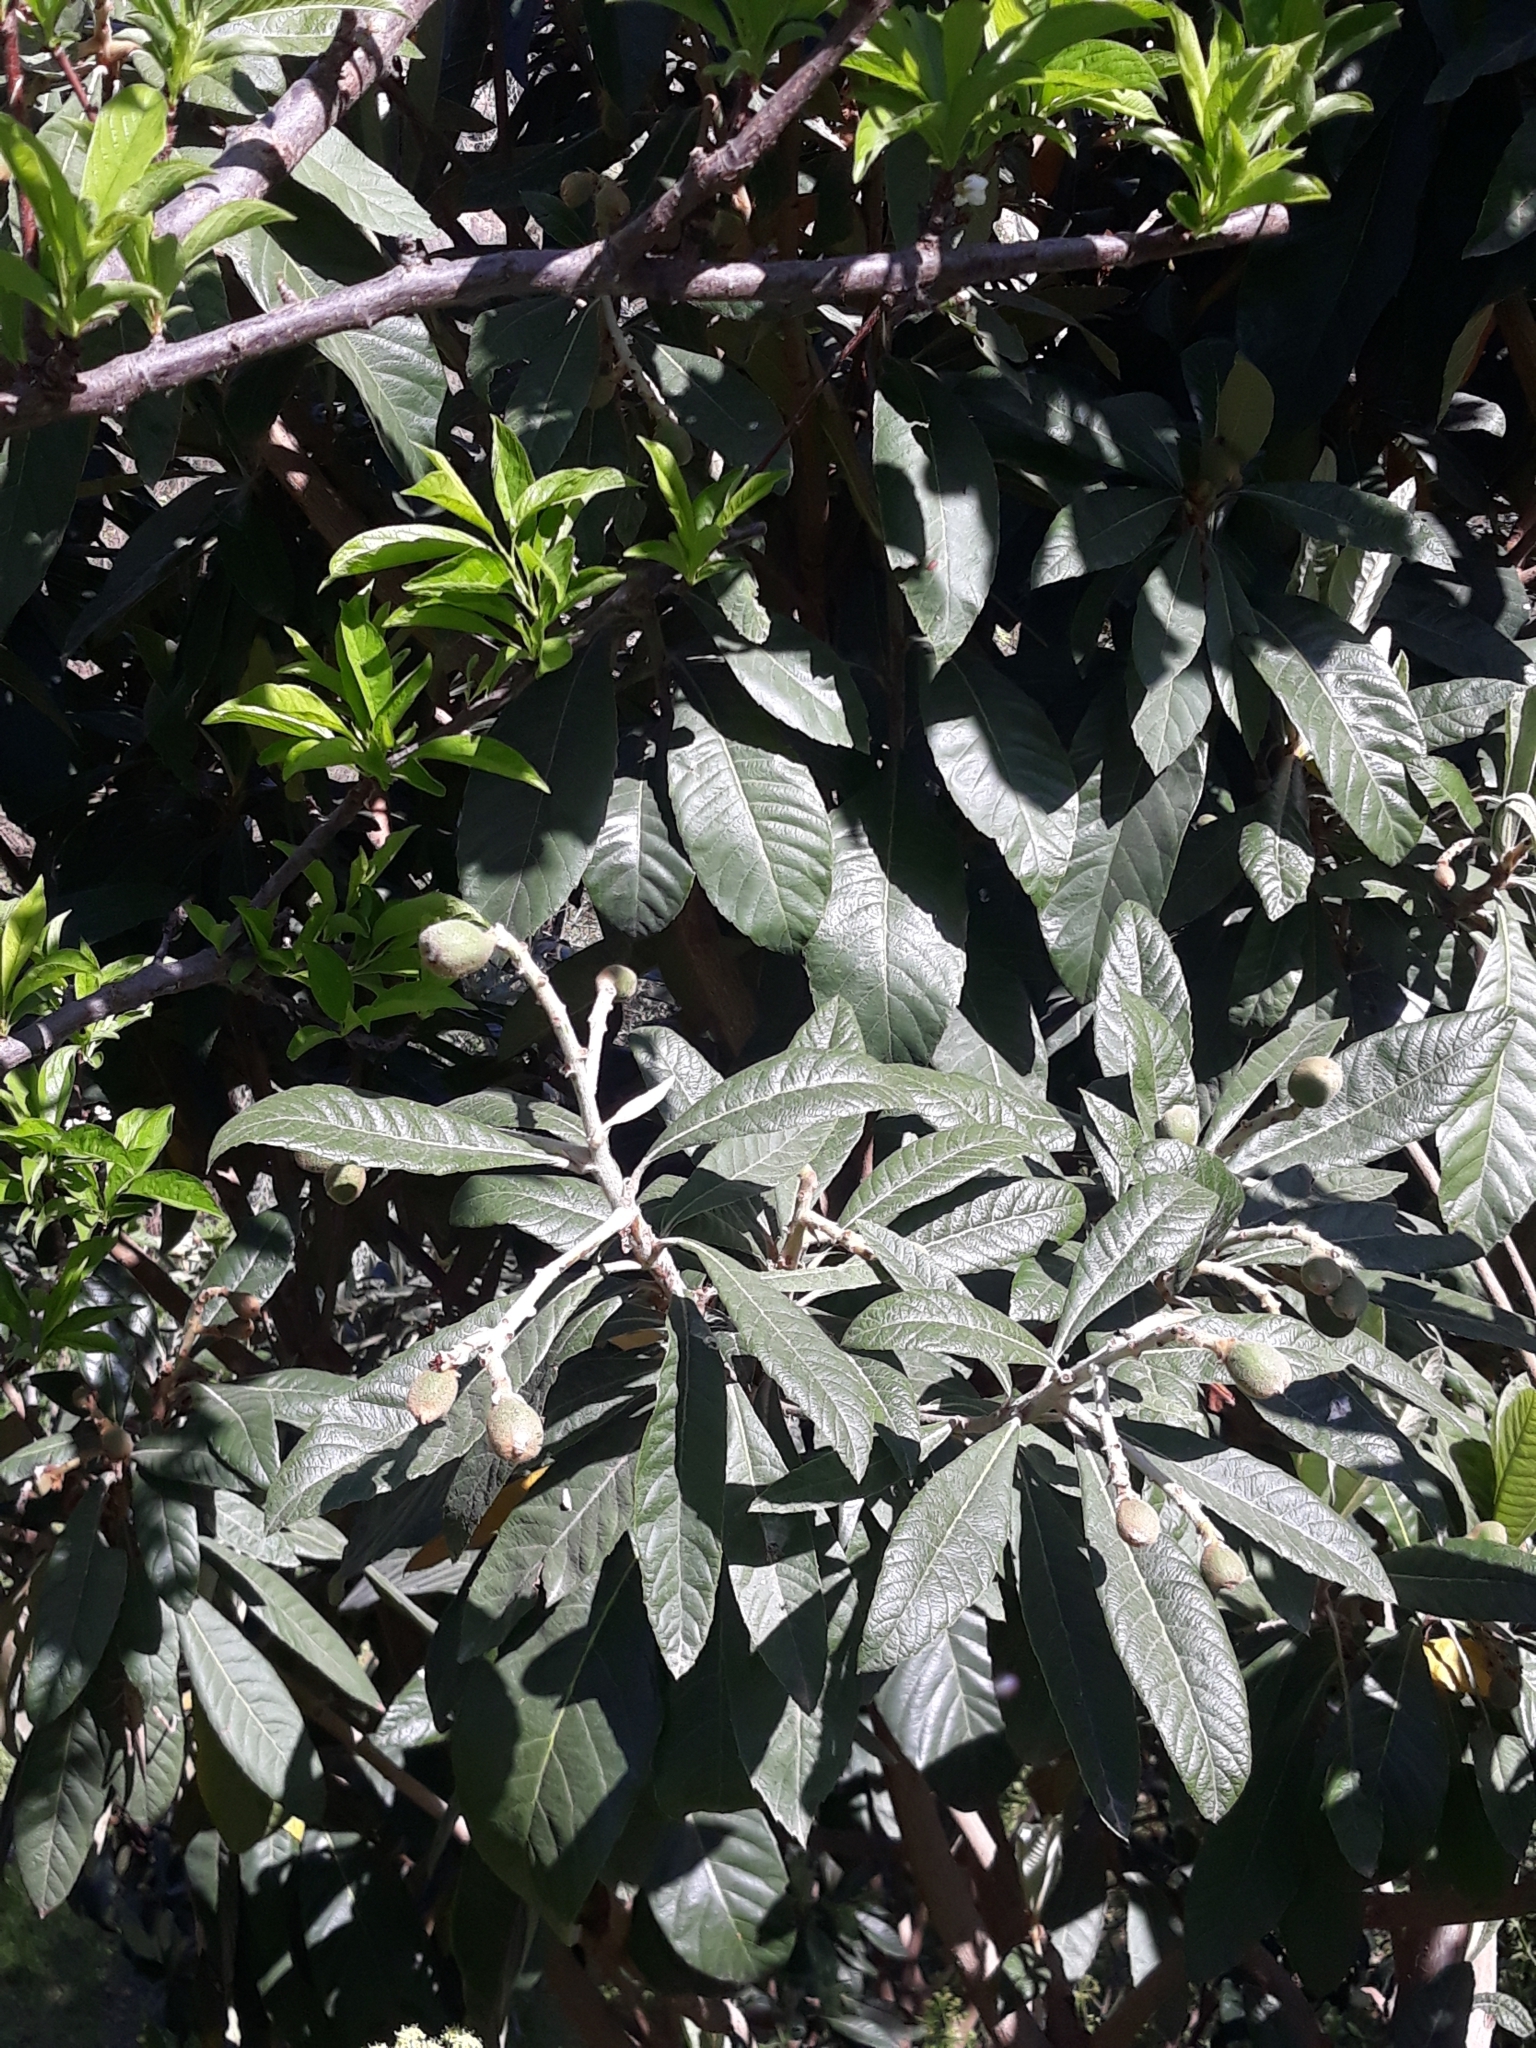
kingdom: Plantae
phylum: Tracheophyta
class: Magnoliopsida
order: Rosales
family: Rosaceae
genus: Rhaphiolepis
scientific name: Rhaphiolepis bibas
